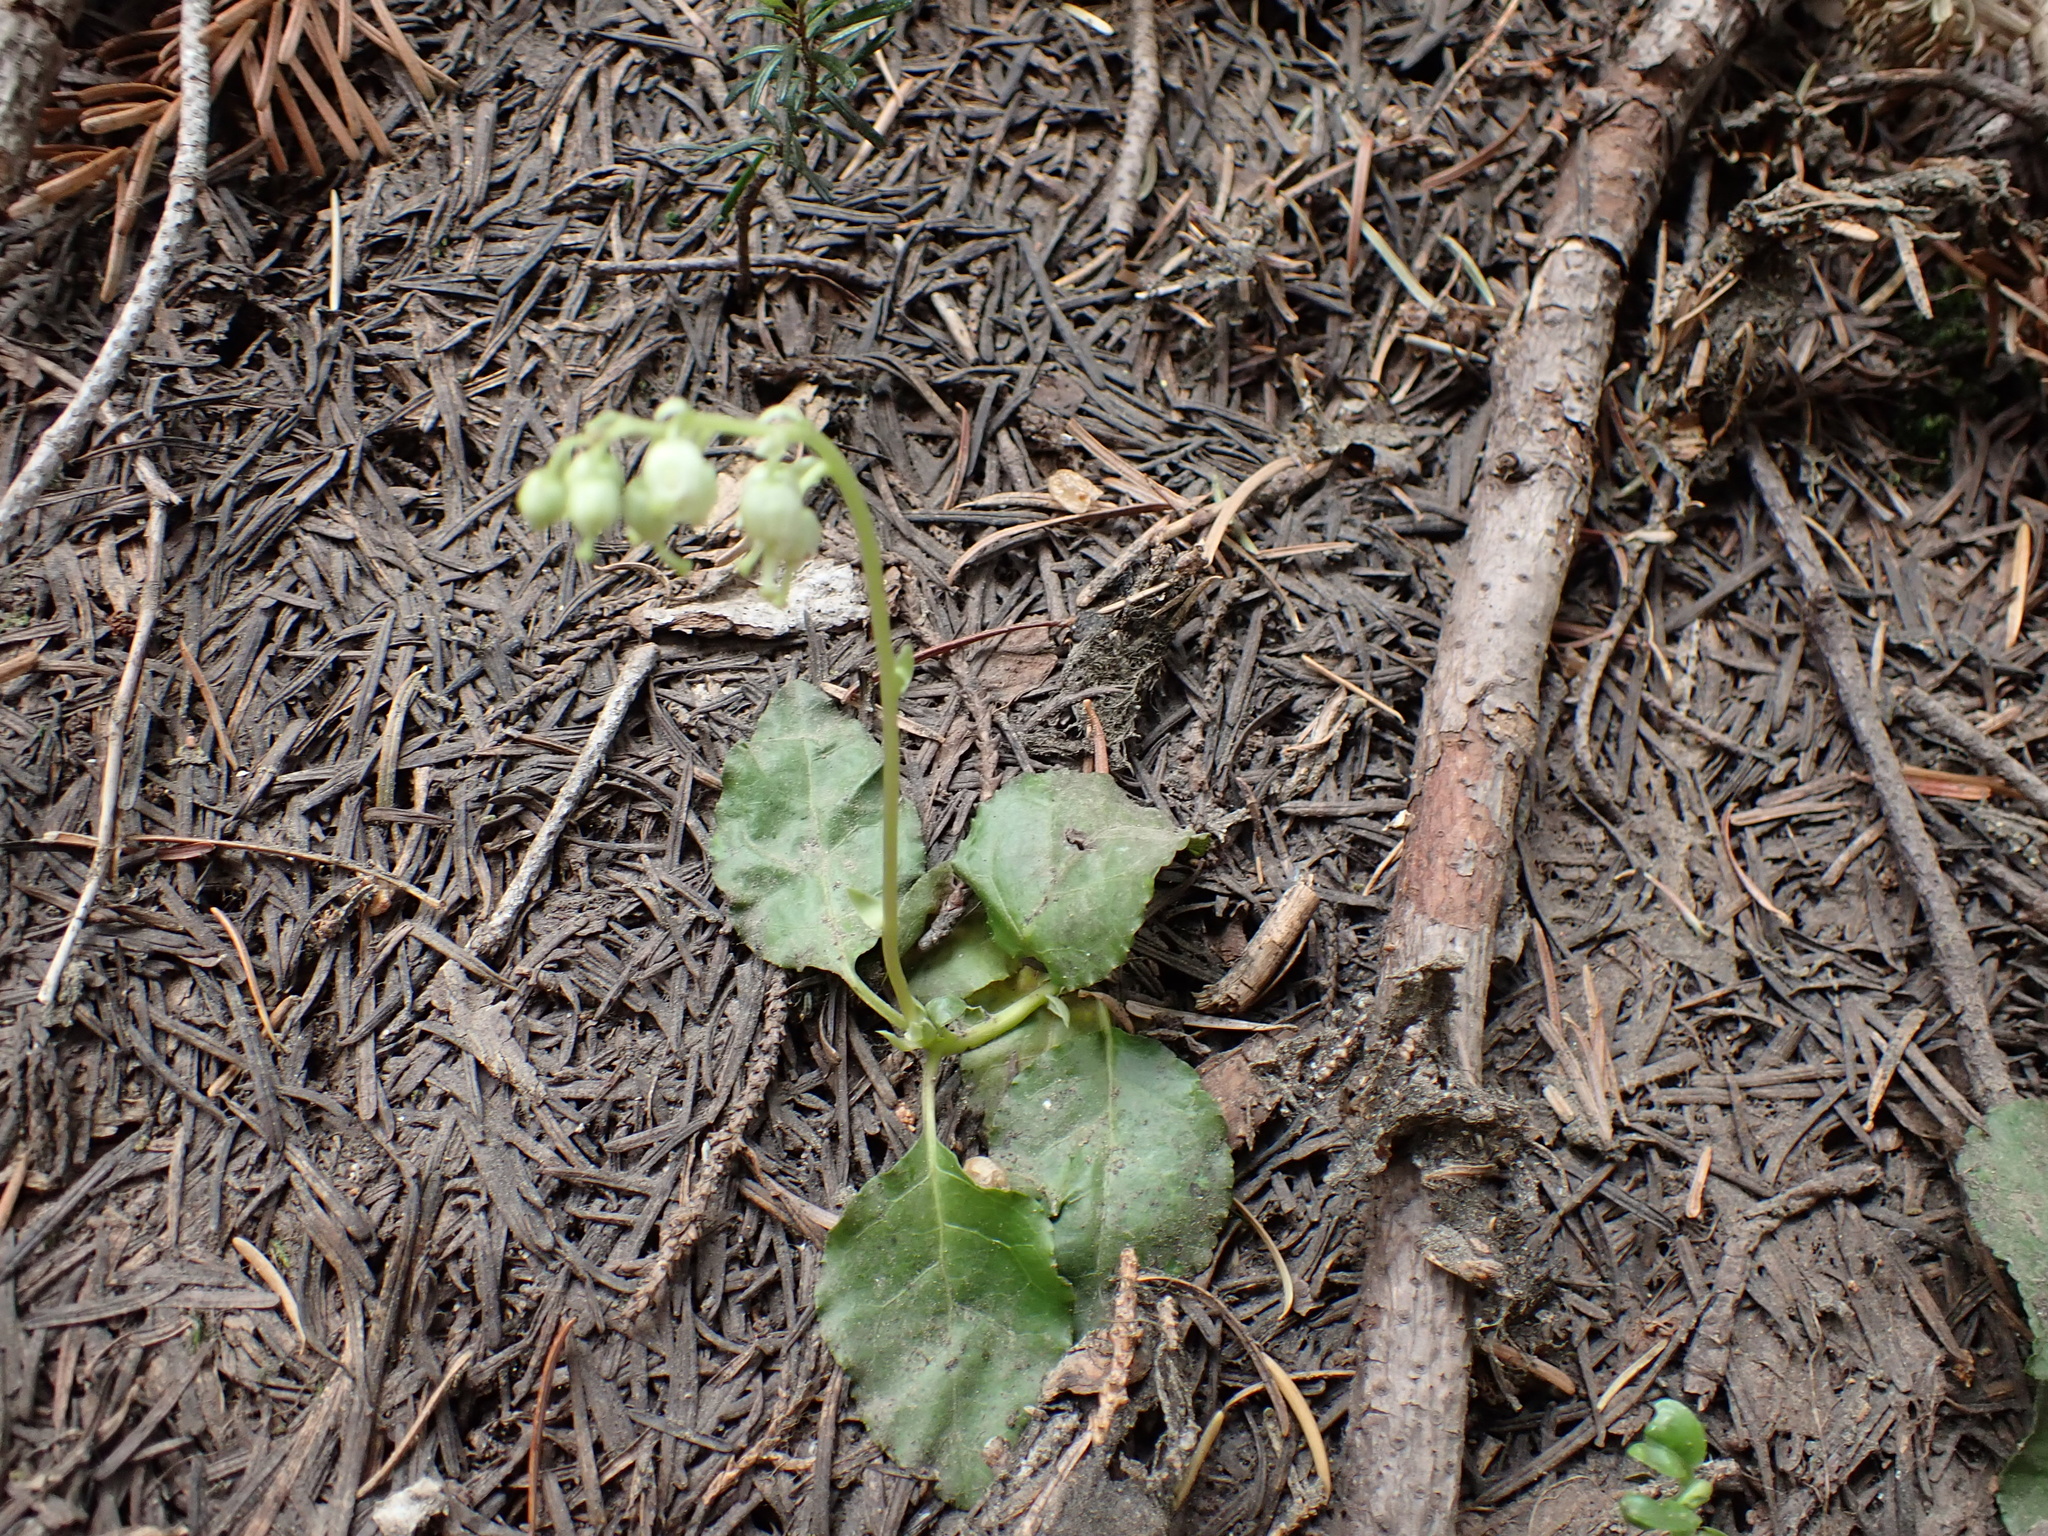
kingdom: Plantae
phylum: Tracheophyta
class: Magnoliopsida
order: Ericales
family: Ericaceae
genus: Orthilia
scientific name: Orthilia secunda
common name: One-sided orthilia
